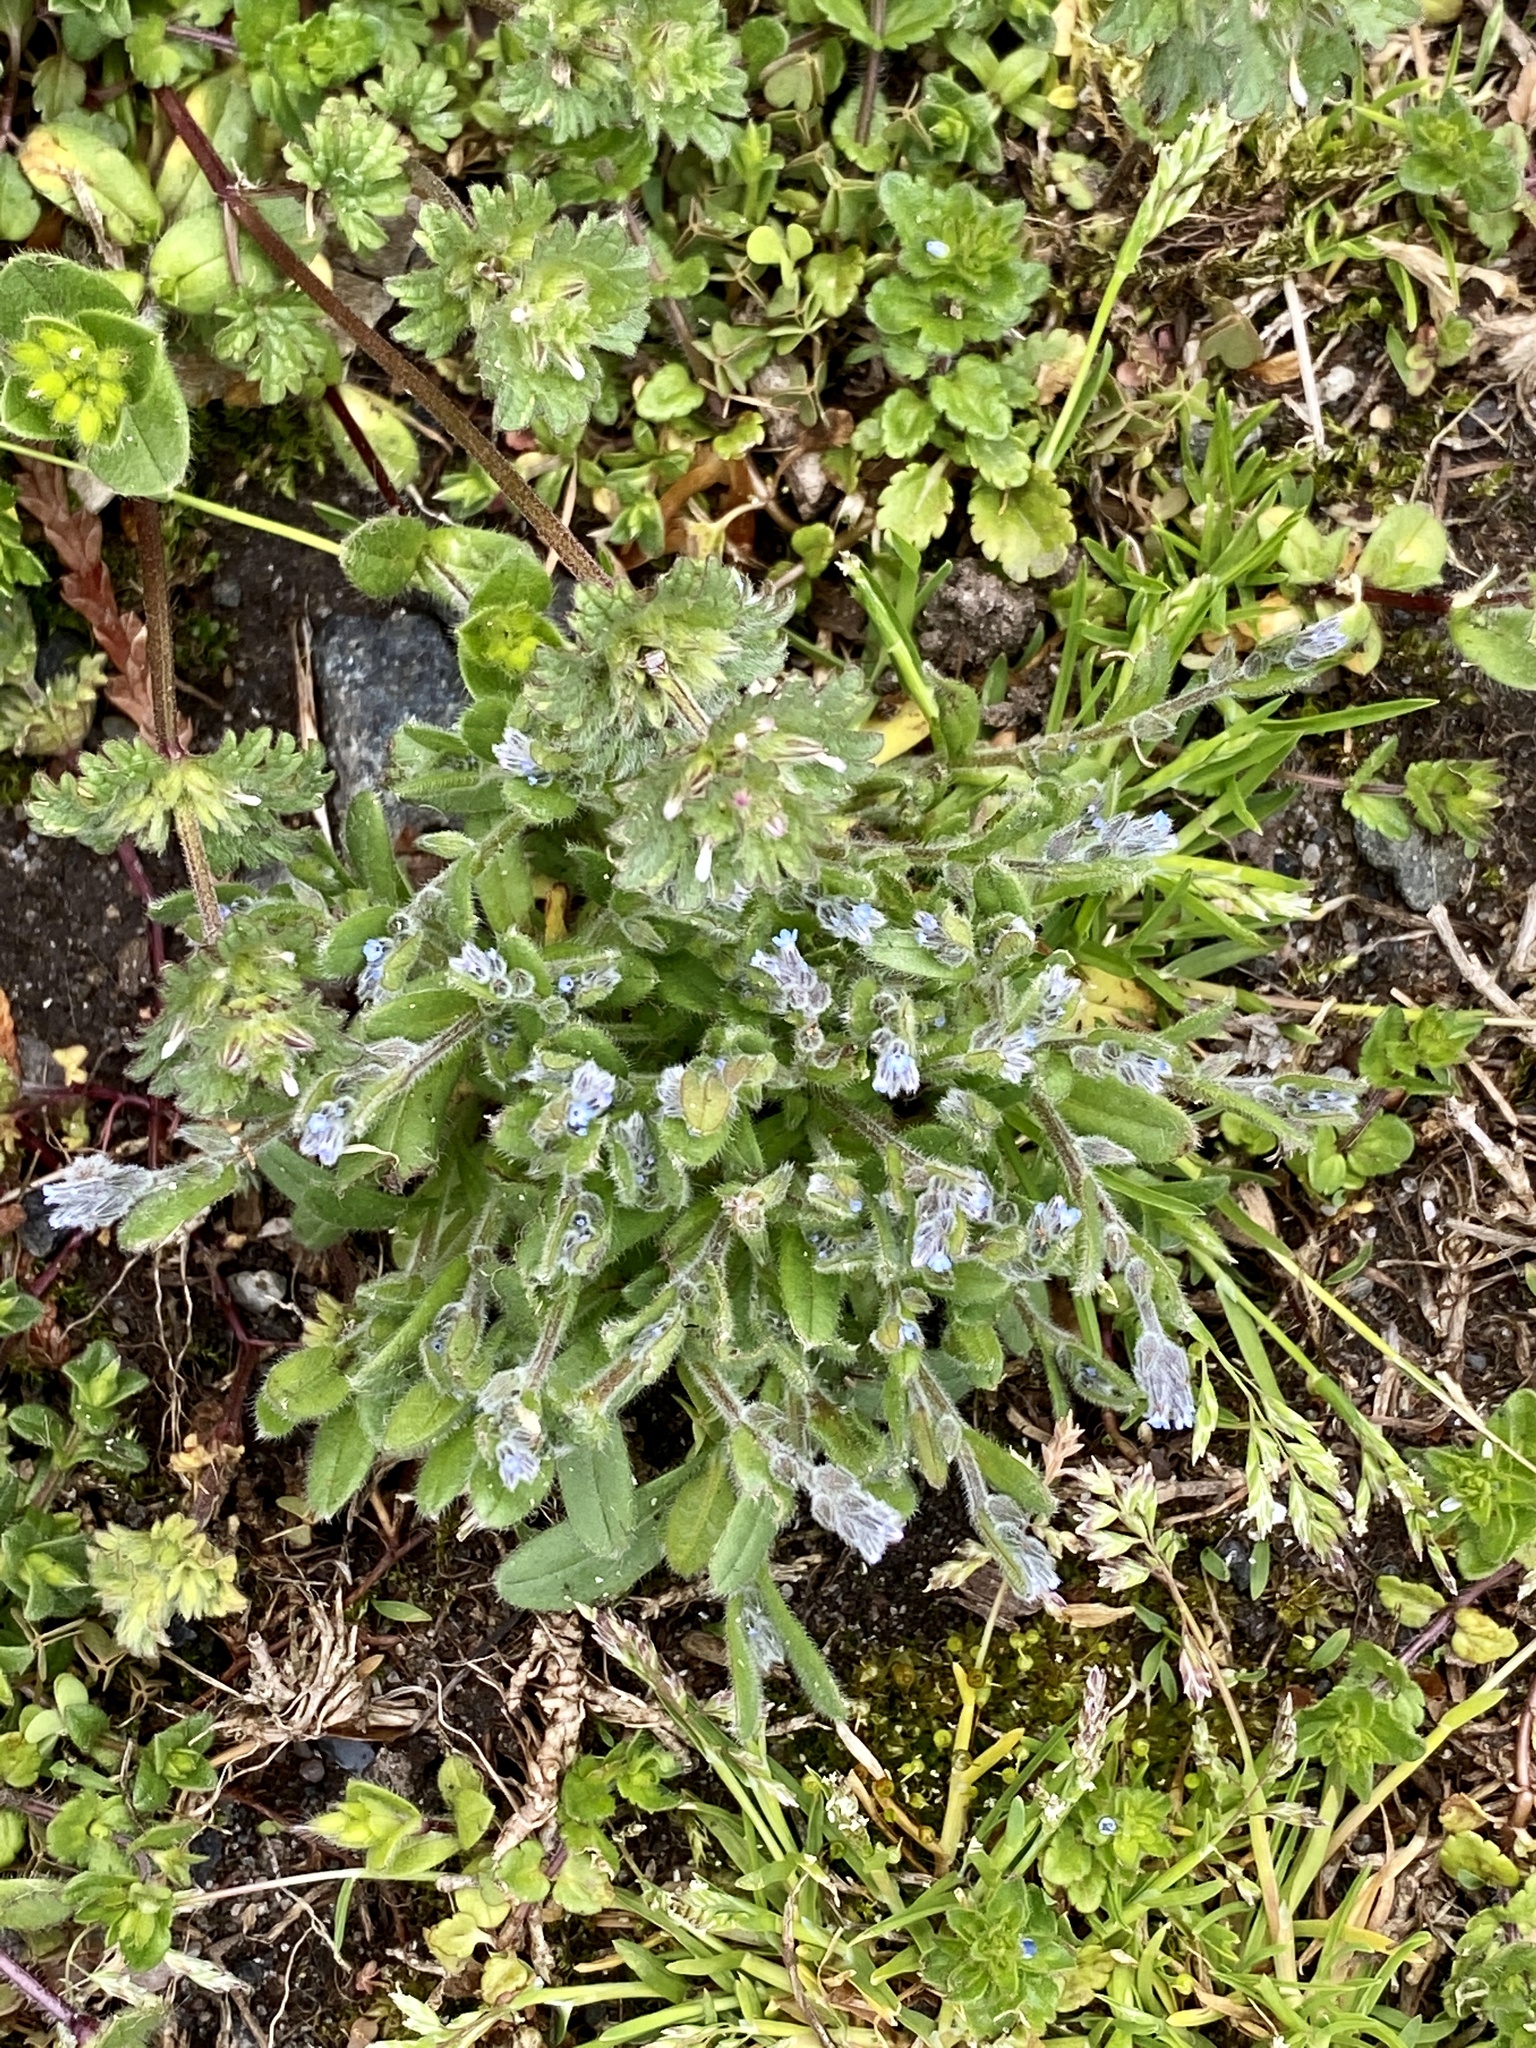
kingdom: Plantae
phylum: Tracheophyta
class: Magnoliopsida
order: Boraginales
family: Boraginaceae
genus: Myosotis
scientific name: Myosotis stricta
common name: Strict forget-me-not
